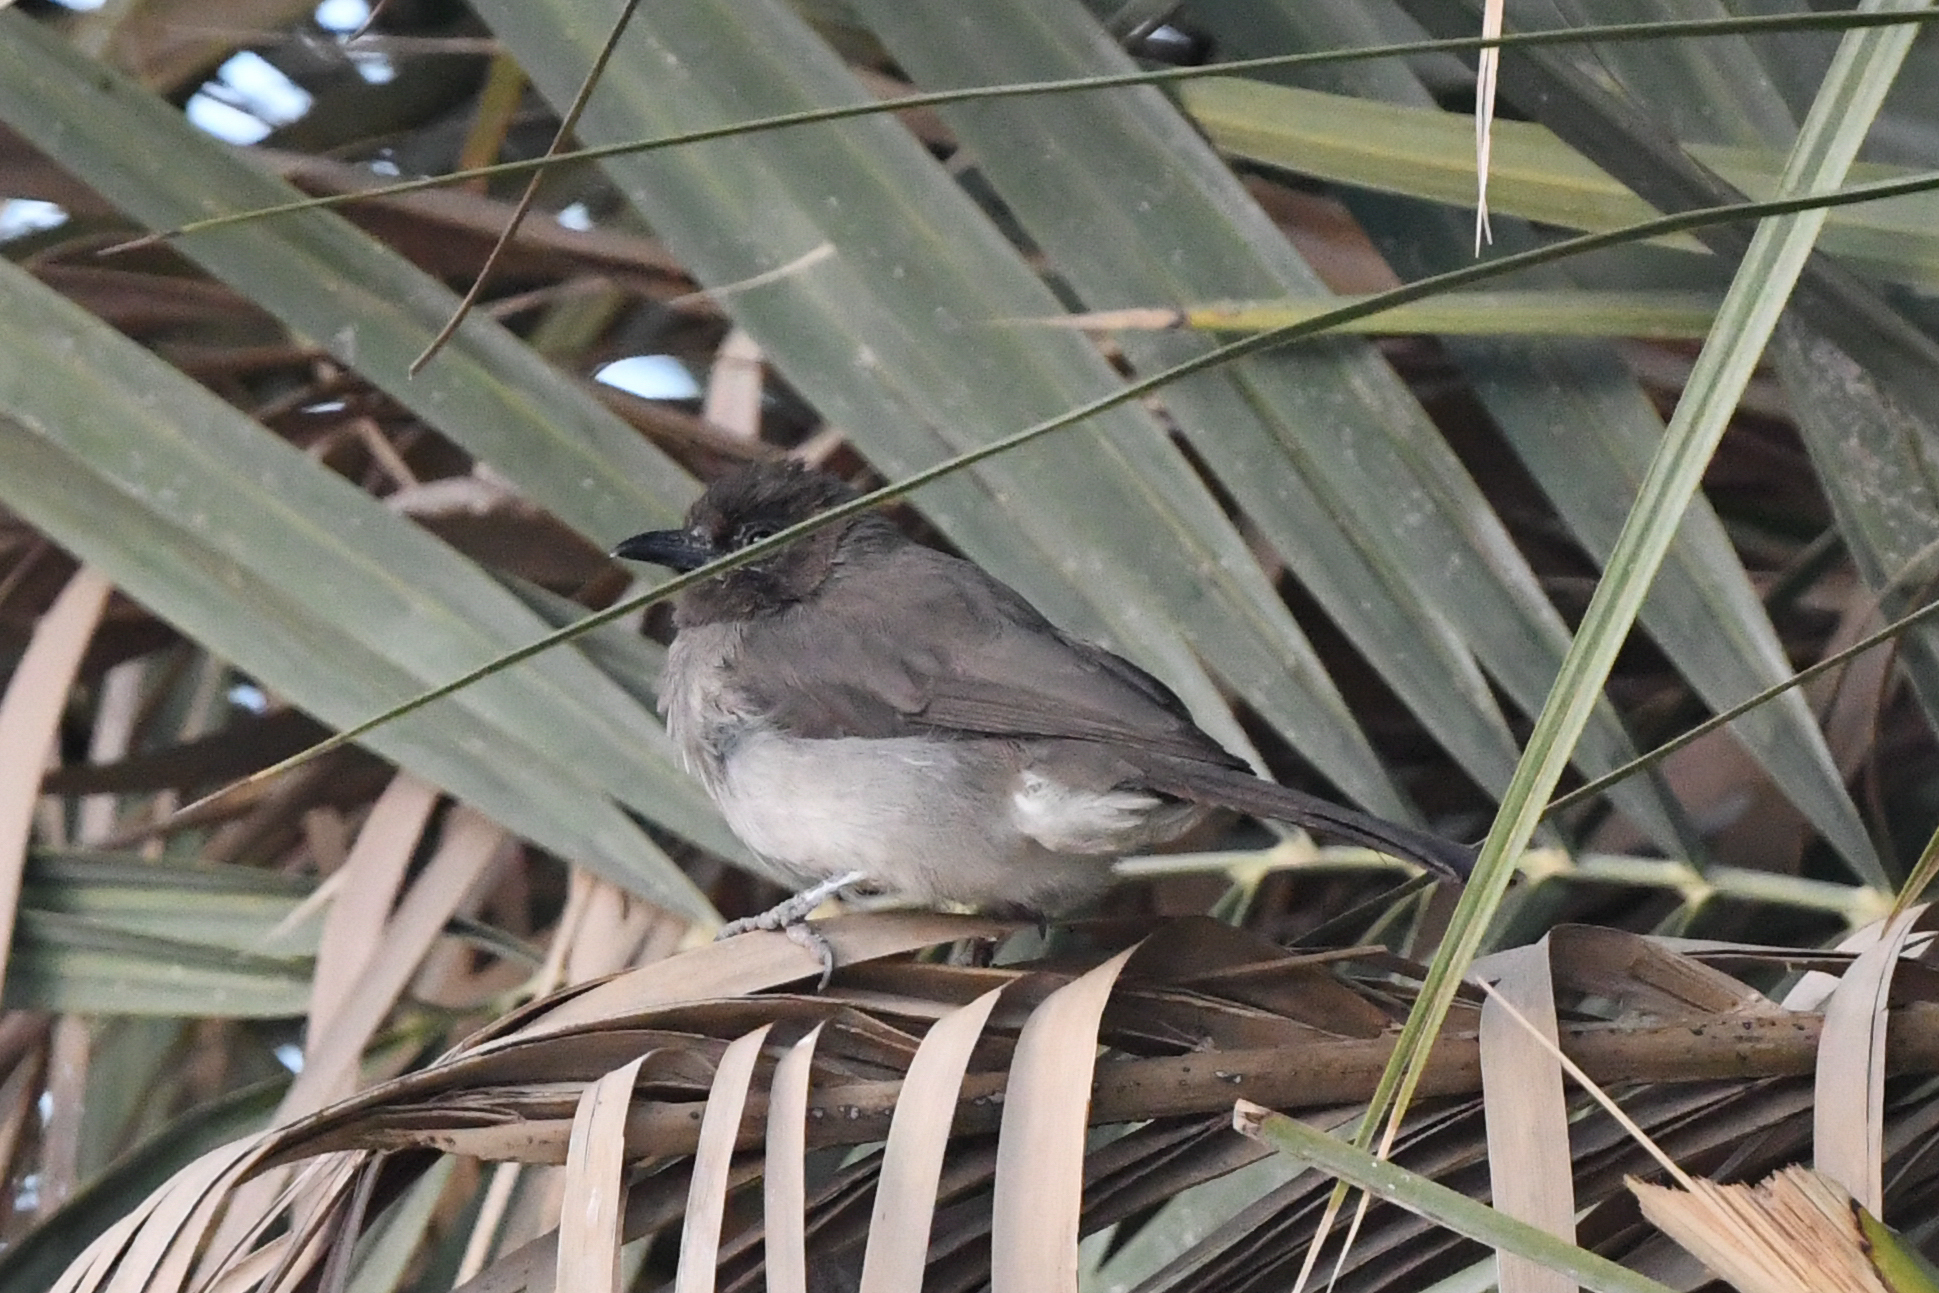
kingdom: Animalia
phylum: Chordata
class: Aves
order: Passeriformes
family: Pycnonotidae
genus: Pycnonotus
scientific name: Pycnonotus barbatus
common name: Common bulbul
